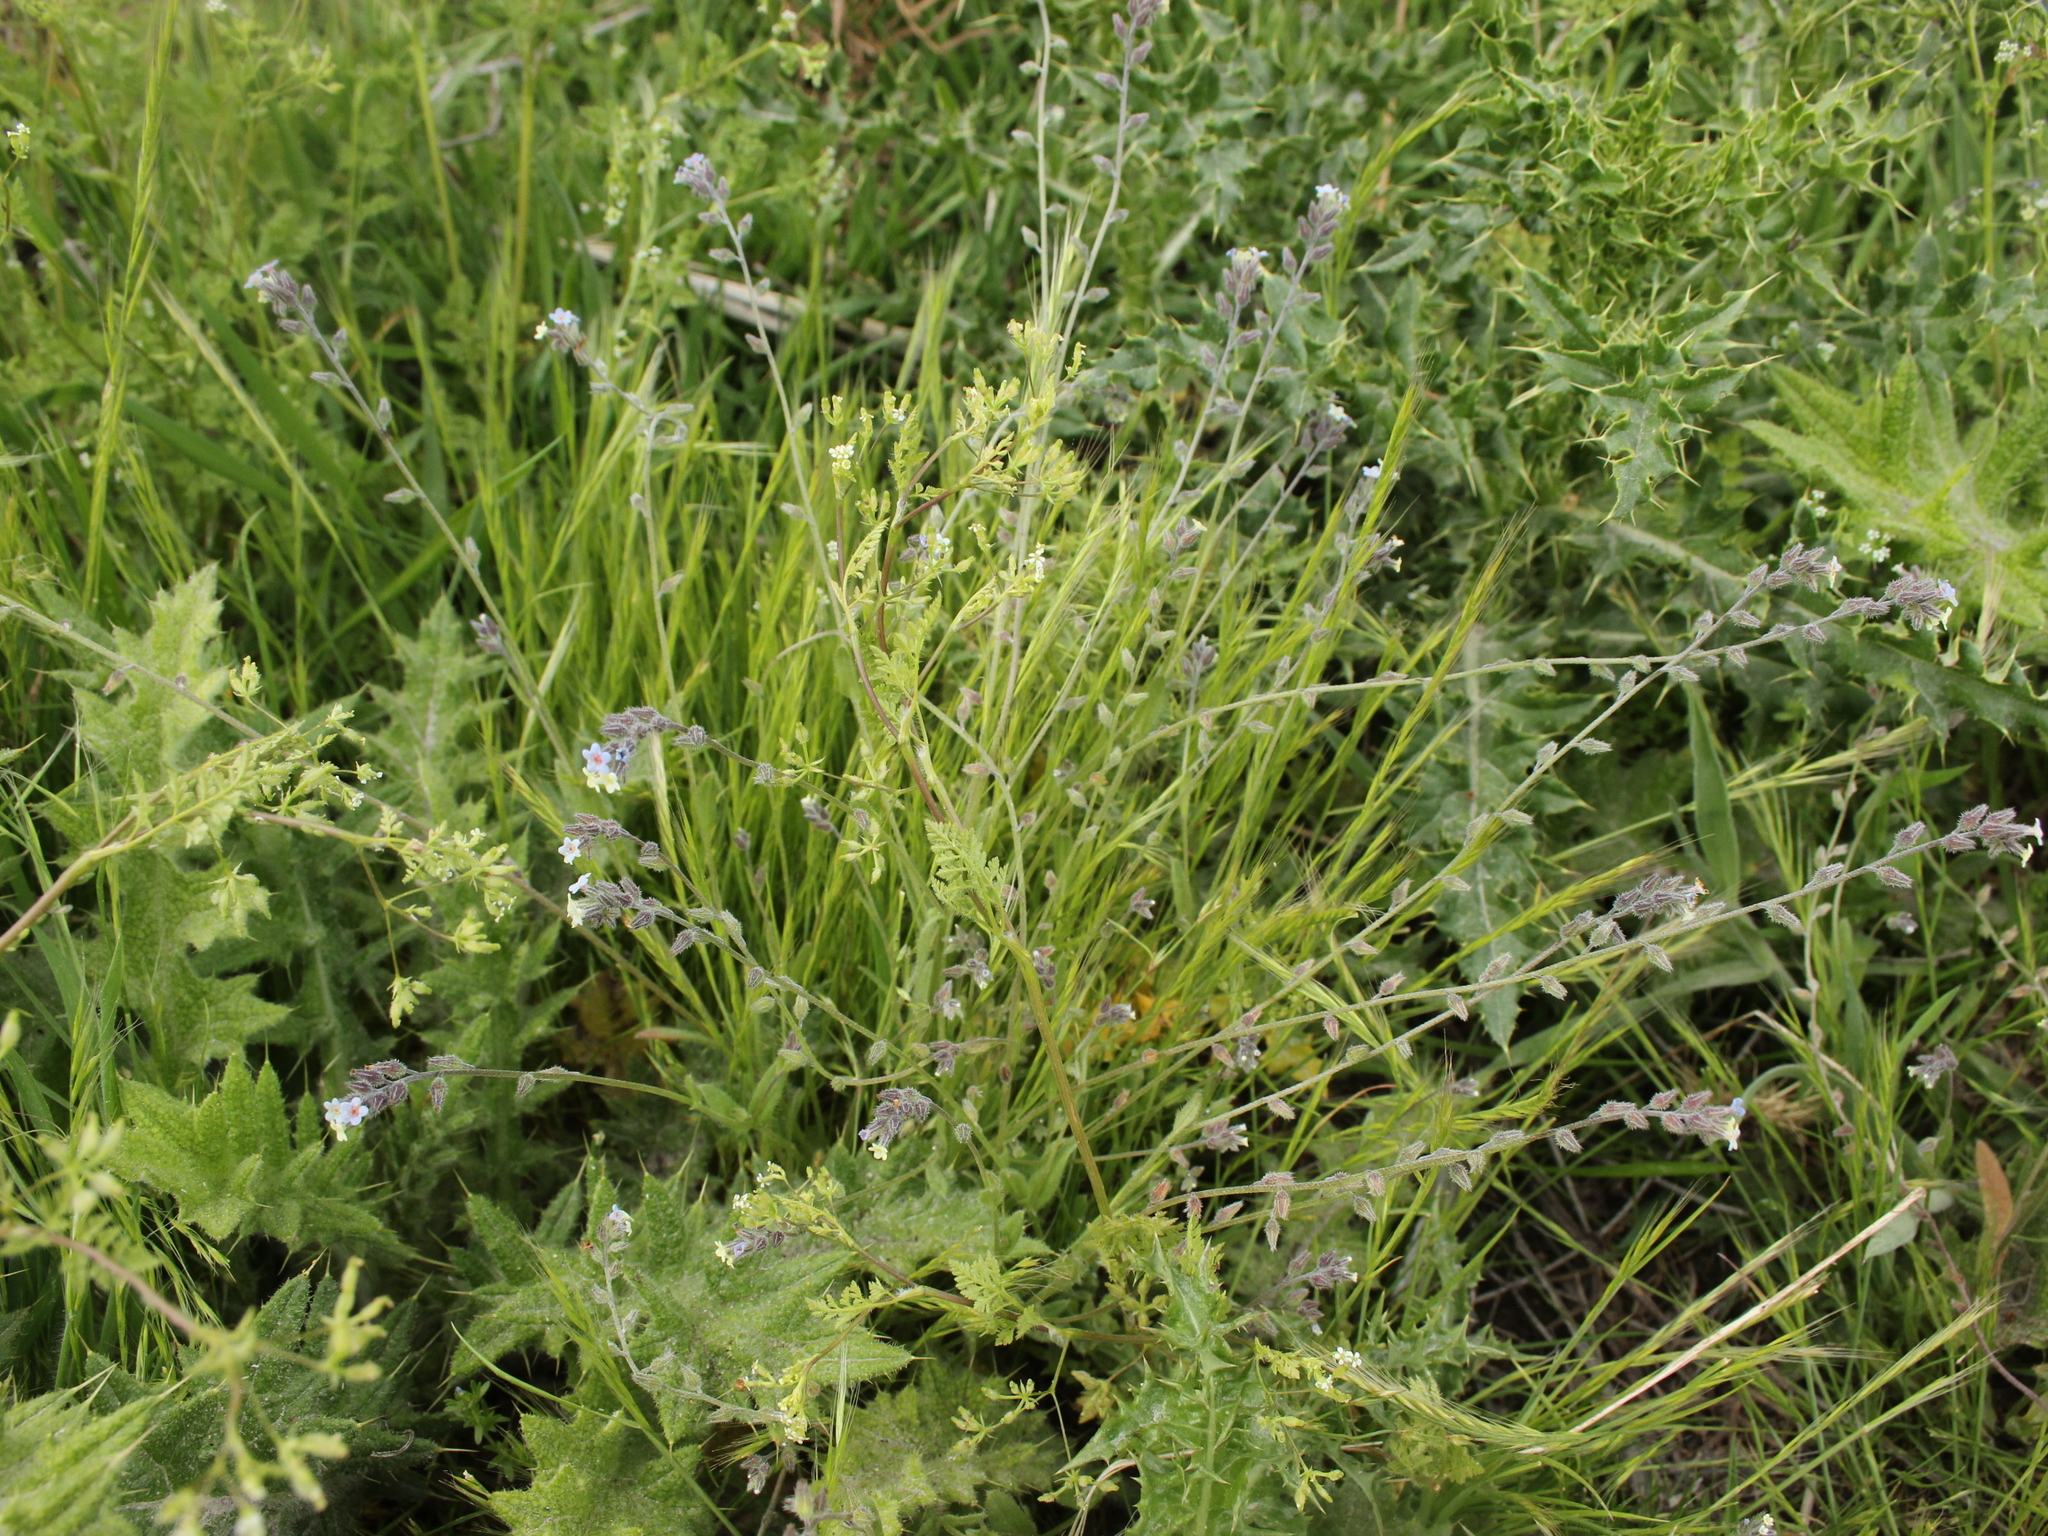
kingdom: Plantae
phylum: Tracheophyta
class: Magnoliopsida
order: Boraginales
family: Boraginaceae
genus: Myosotis
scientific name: Myosotis discolor
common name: Changing forget-me-not
